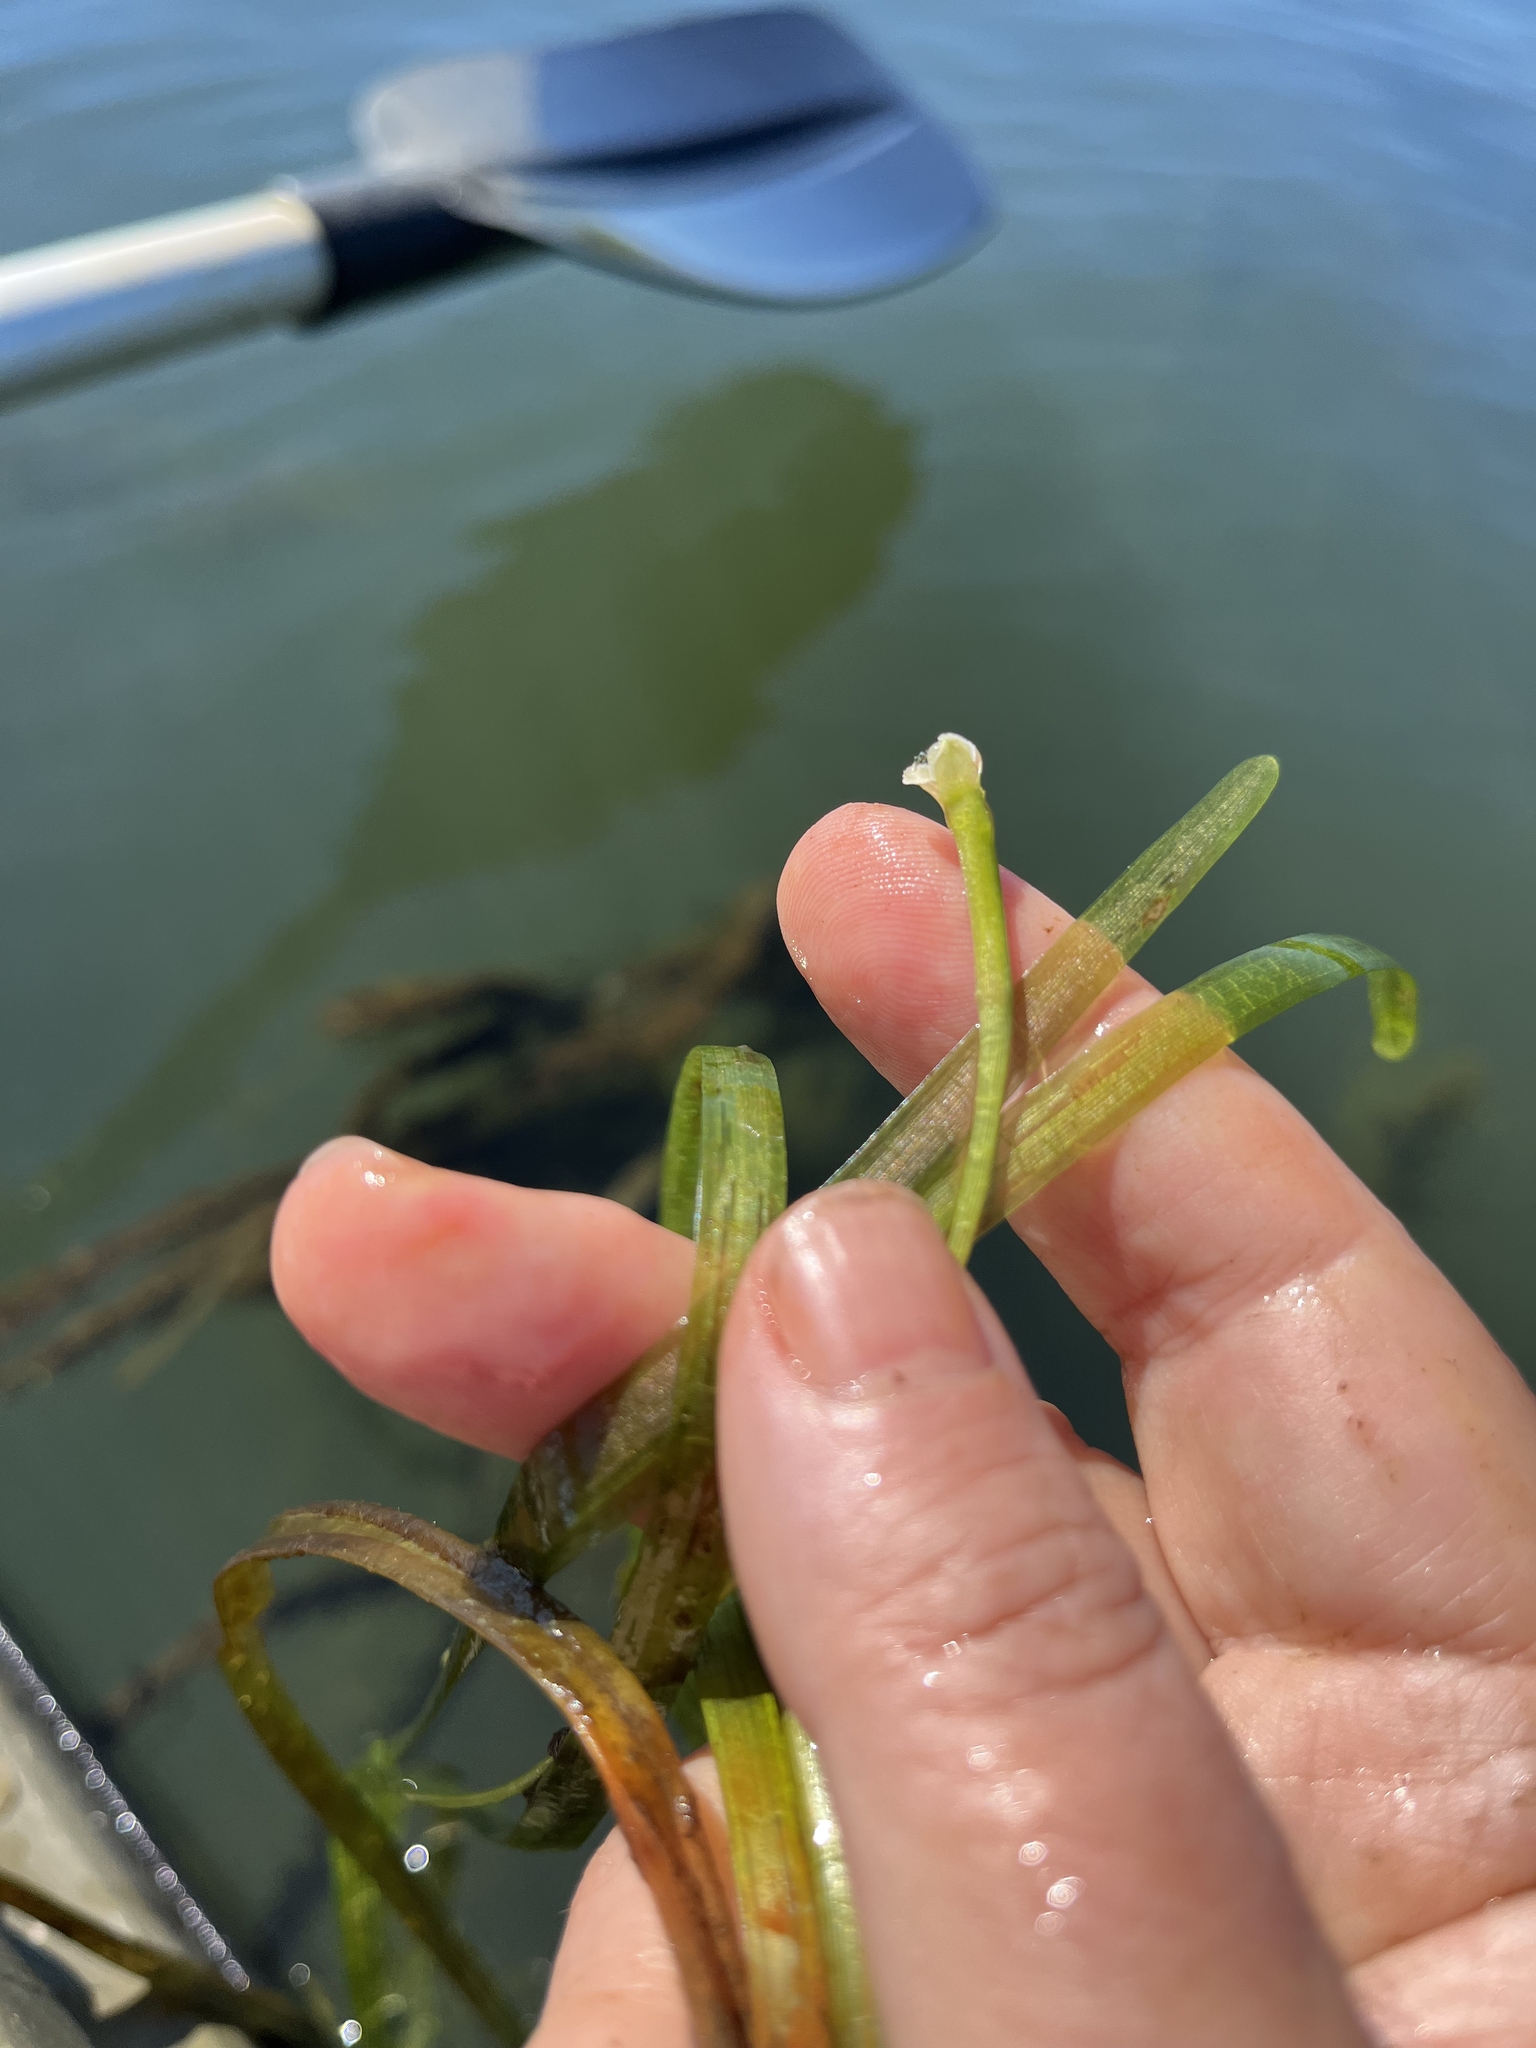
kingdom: Plantae
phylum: Tracheophyta
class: Liliopsida
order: Alismatales
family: Hydrocharitaceae
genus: Vallisneria
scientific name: Vallisneria americana
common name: American eelgrass
